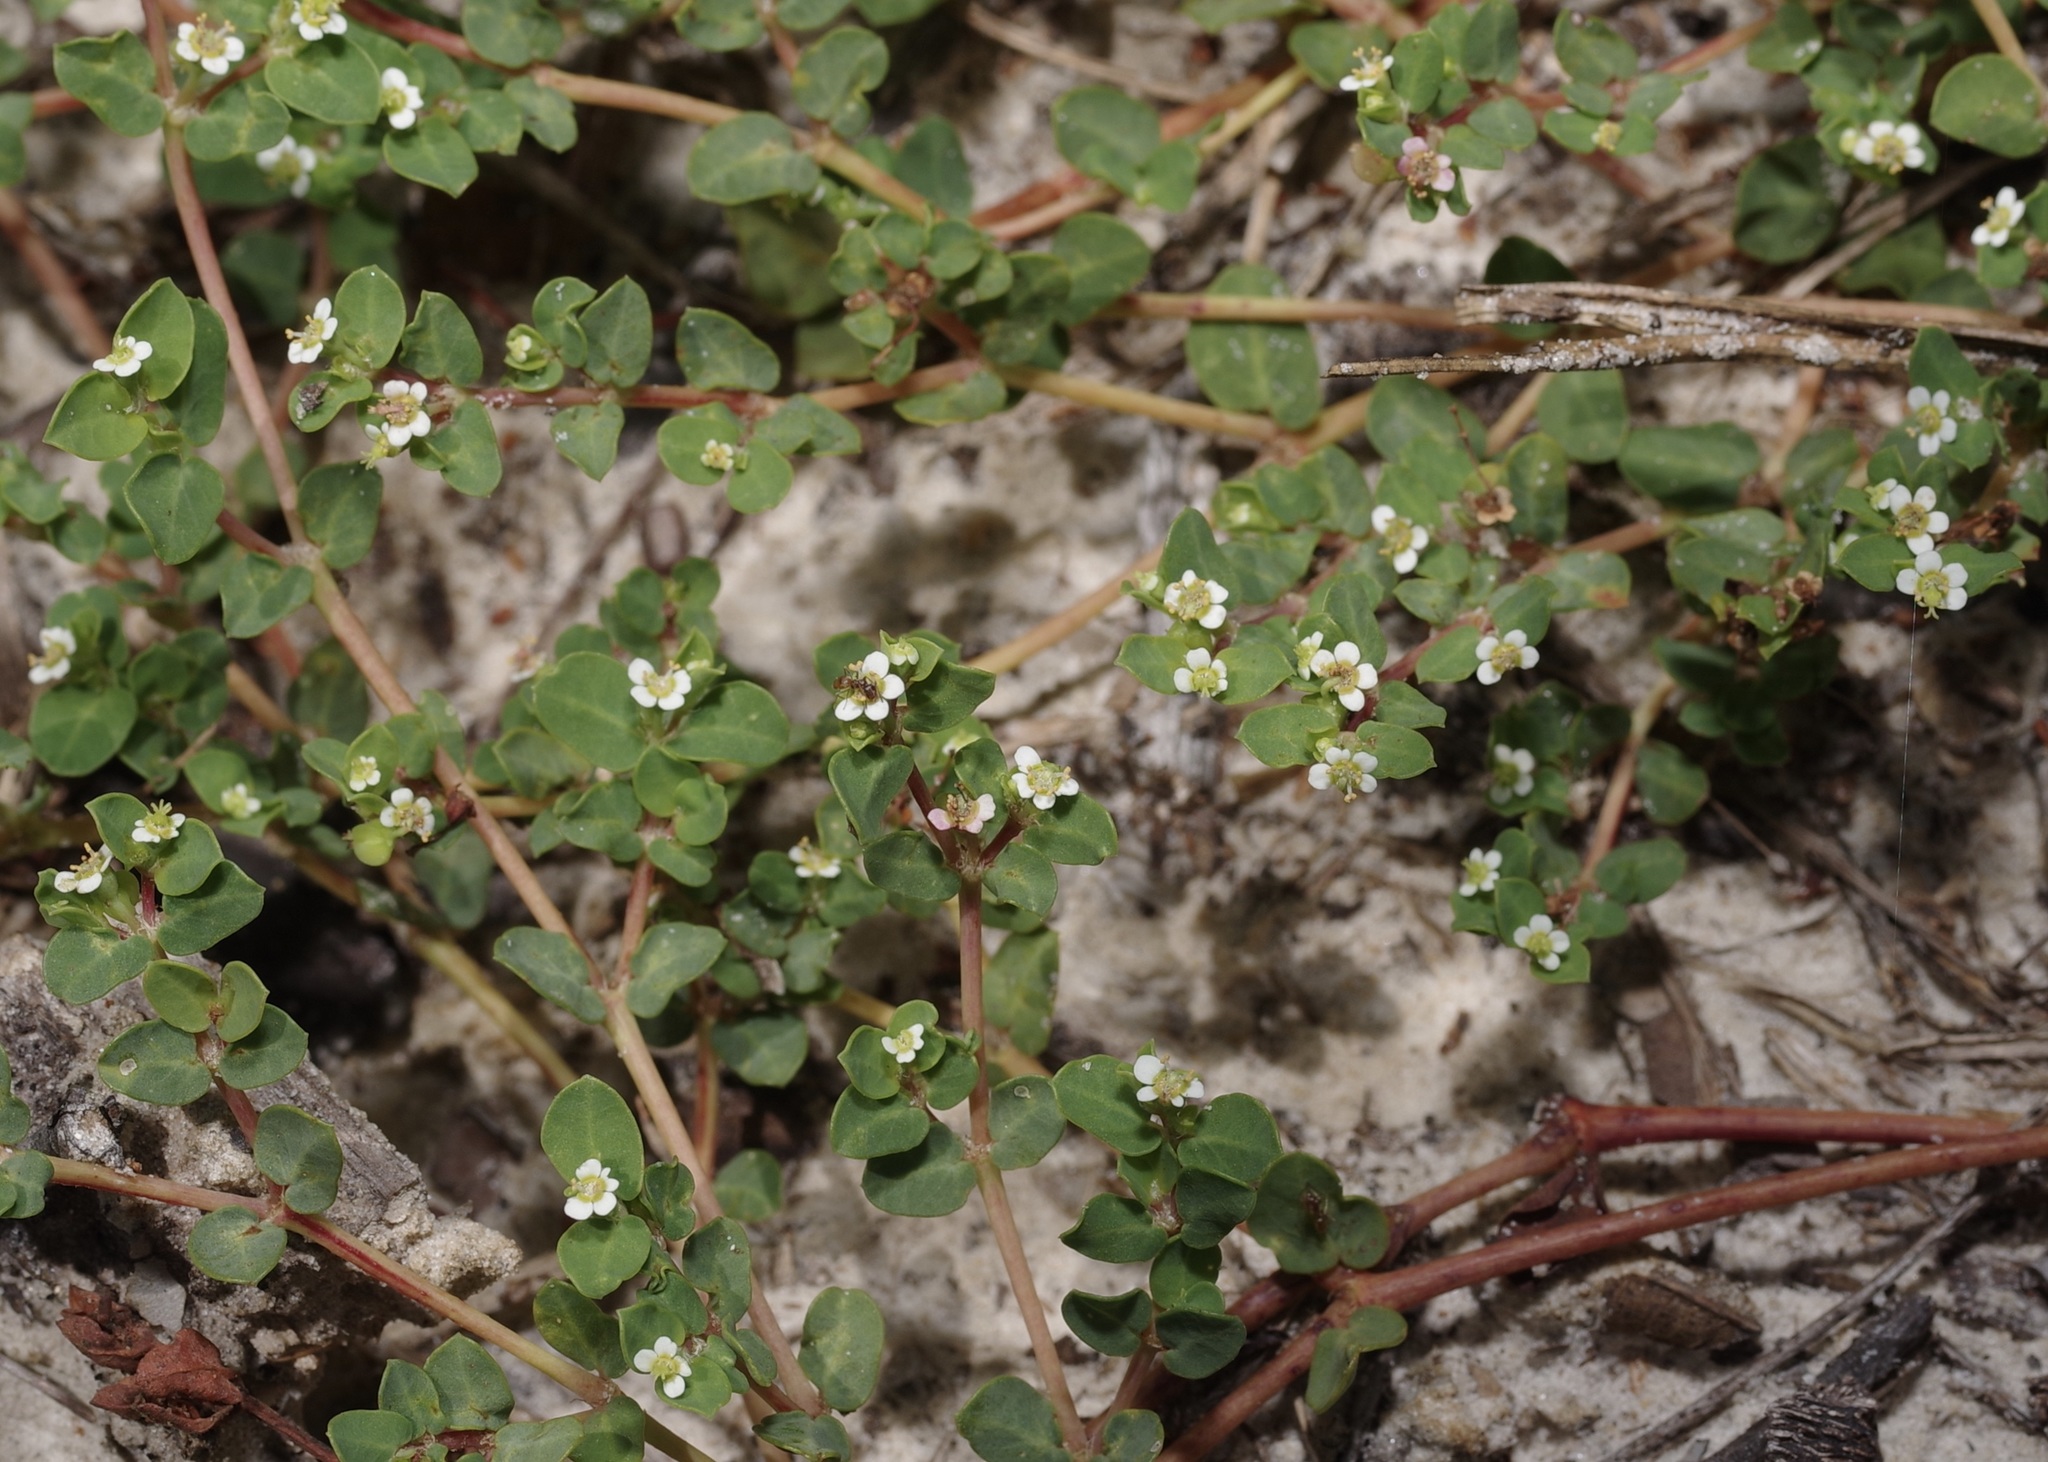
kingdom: Plantae
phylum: Tracheophyta
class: Magnoliopsida
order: Malpighiales
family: Euphorbiaceae
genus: Euphorbia
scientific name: Euphorbia cordifolia
